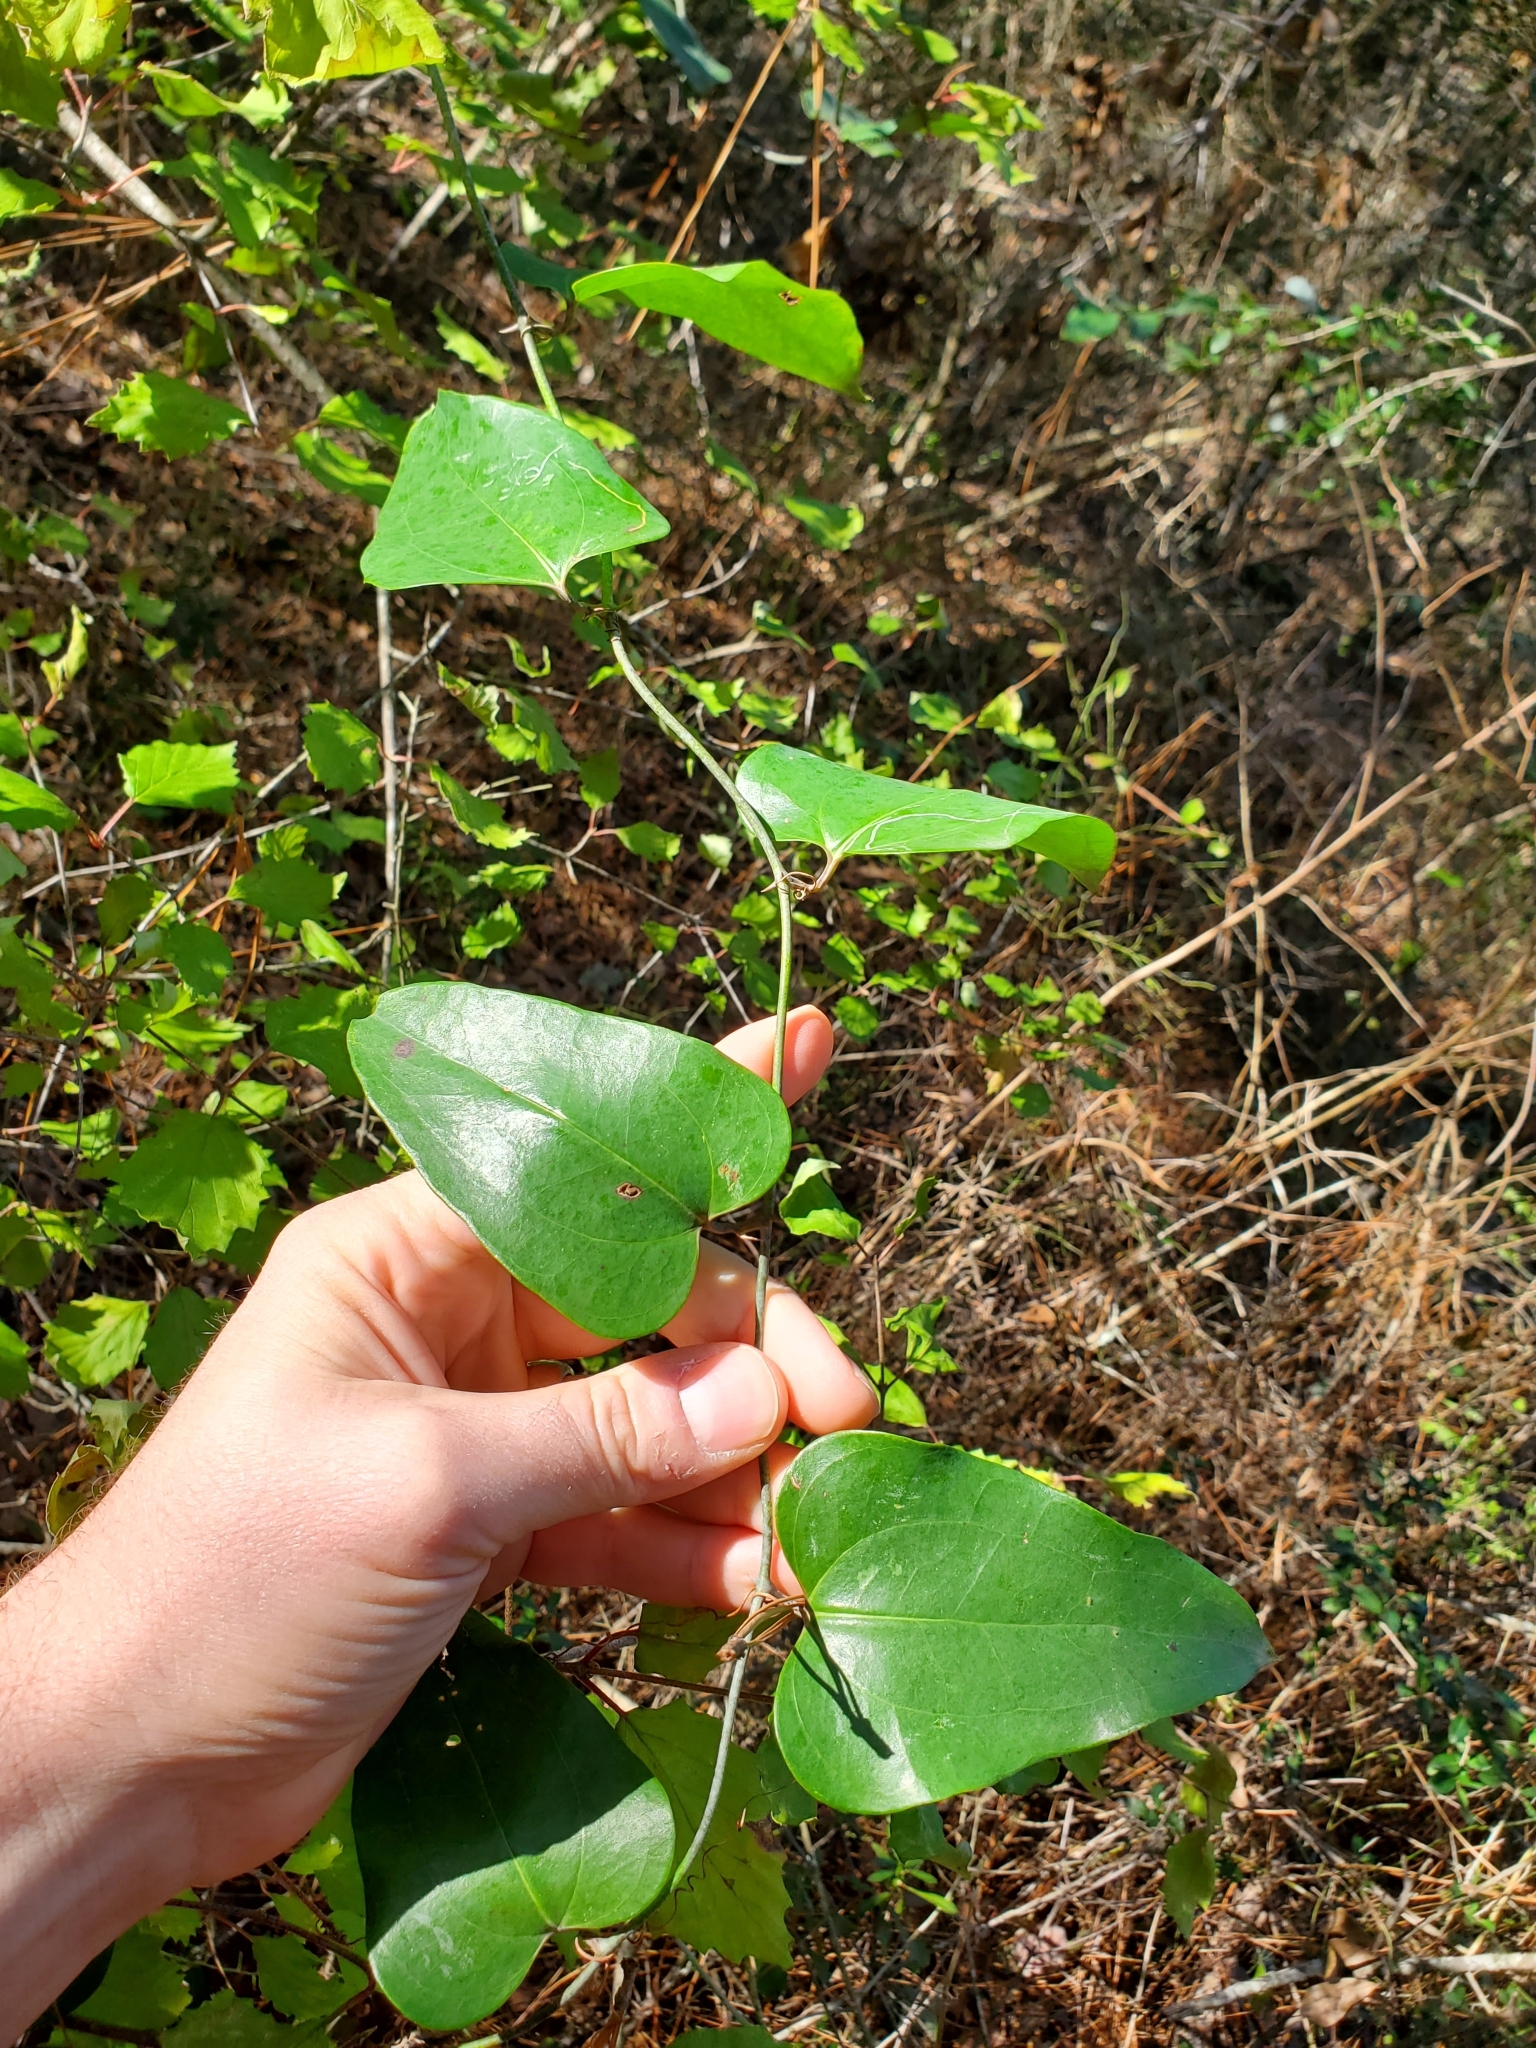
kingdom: Plantae
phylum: Tracheophyta
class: Liliopsida
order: Liliales
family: Smilacaceae
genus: Smilax
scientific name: Smilax glauca
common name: Cat greenbrier
